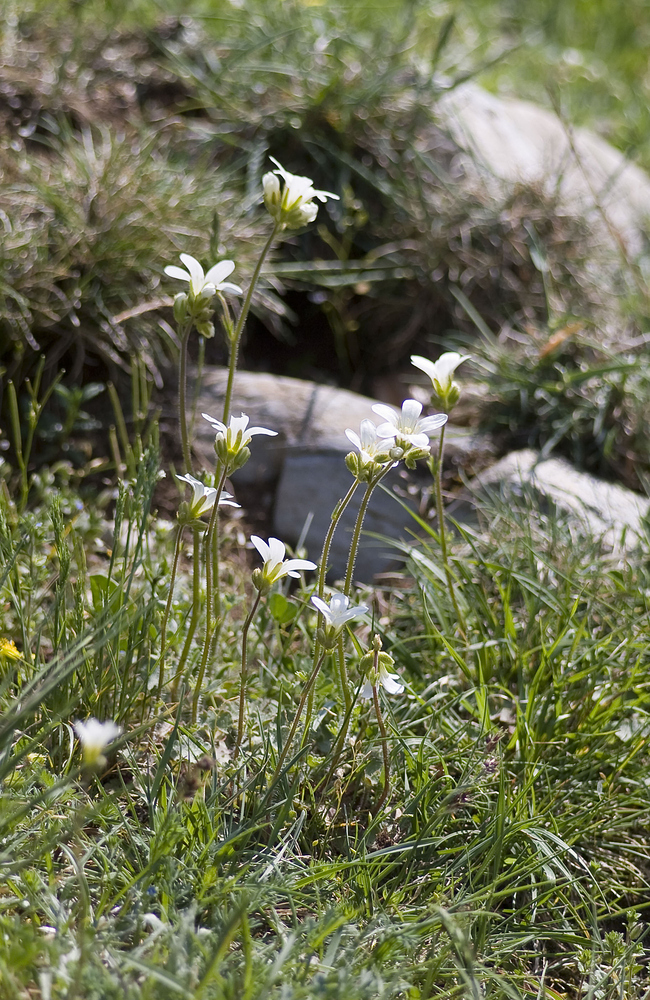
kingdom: Plantae
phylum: Tracheophyta
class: Magnoliopsida
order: Saxifragales
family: Saxifragaceae
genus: Saxifraga
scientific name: Saxifraga granulata
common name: Meadow saxifrage
